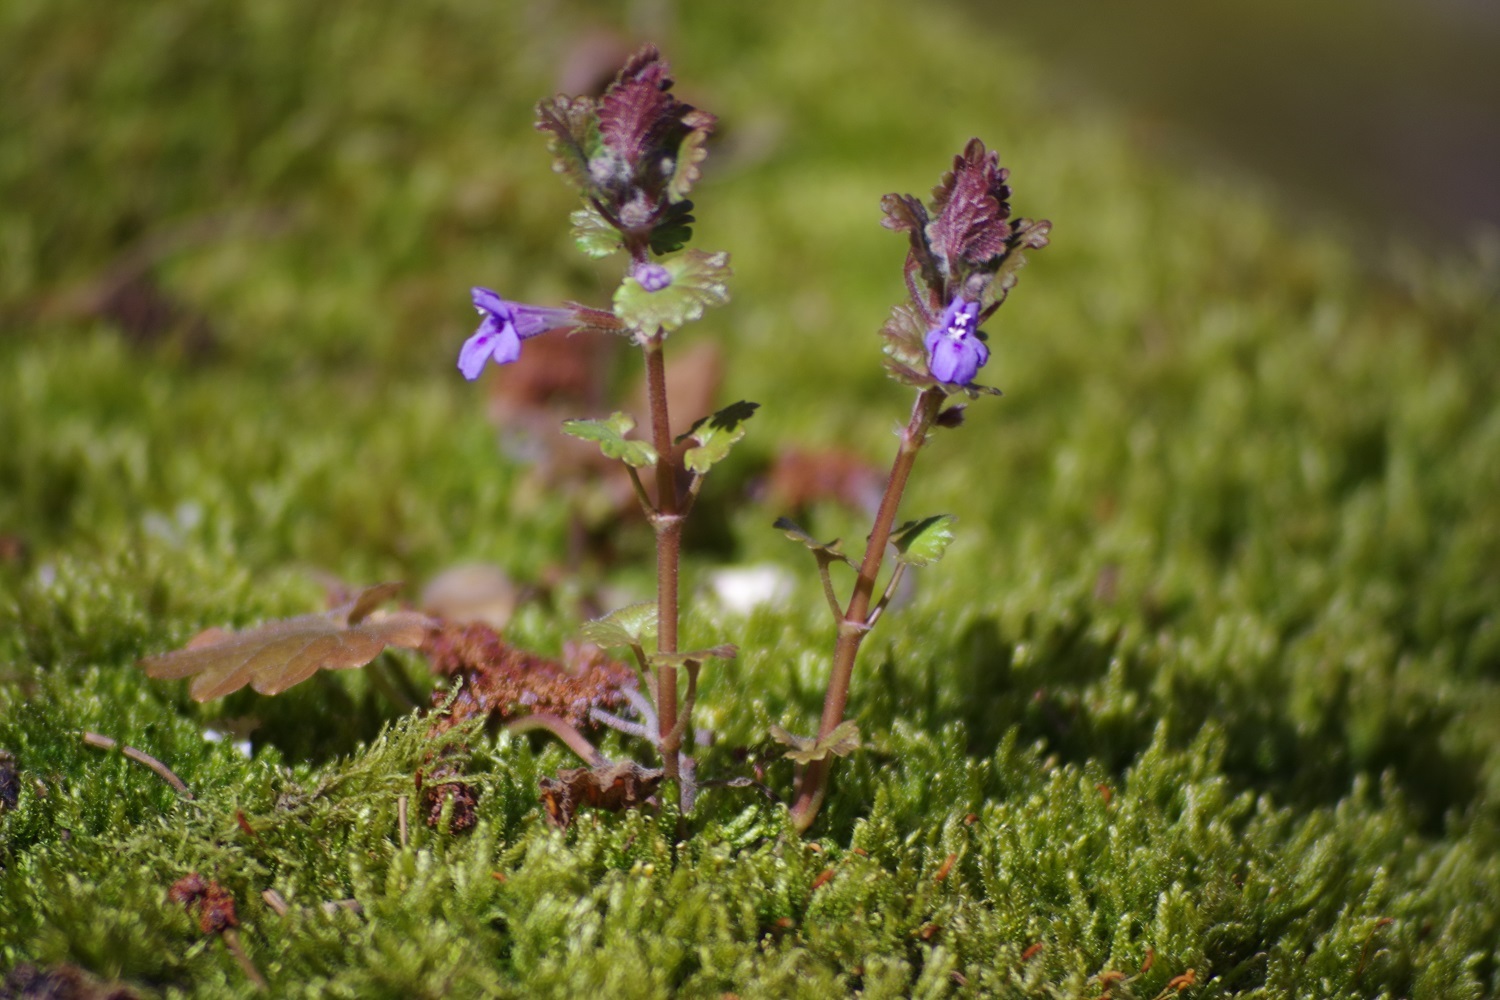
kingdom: Plantae
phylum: Tracheophyta
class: Magnoliopsida
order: Lamiales
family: Lamiaceae
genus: Glechoma
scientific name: Glechoma hederacea
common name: Ground ivy
